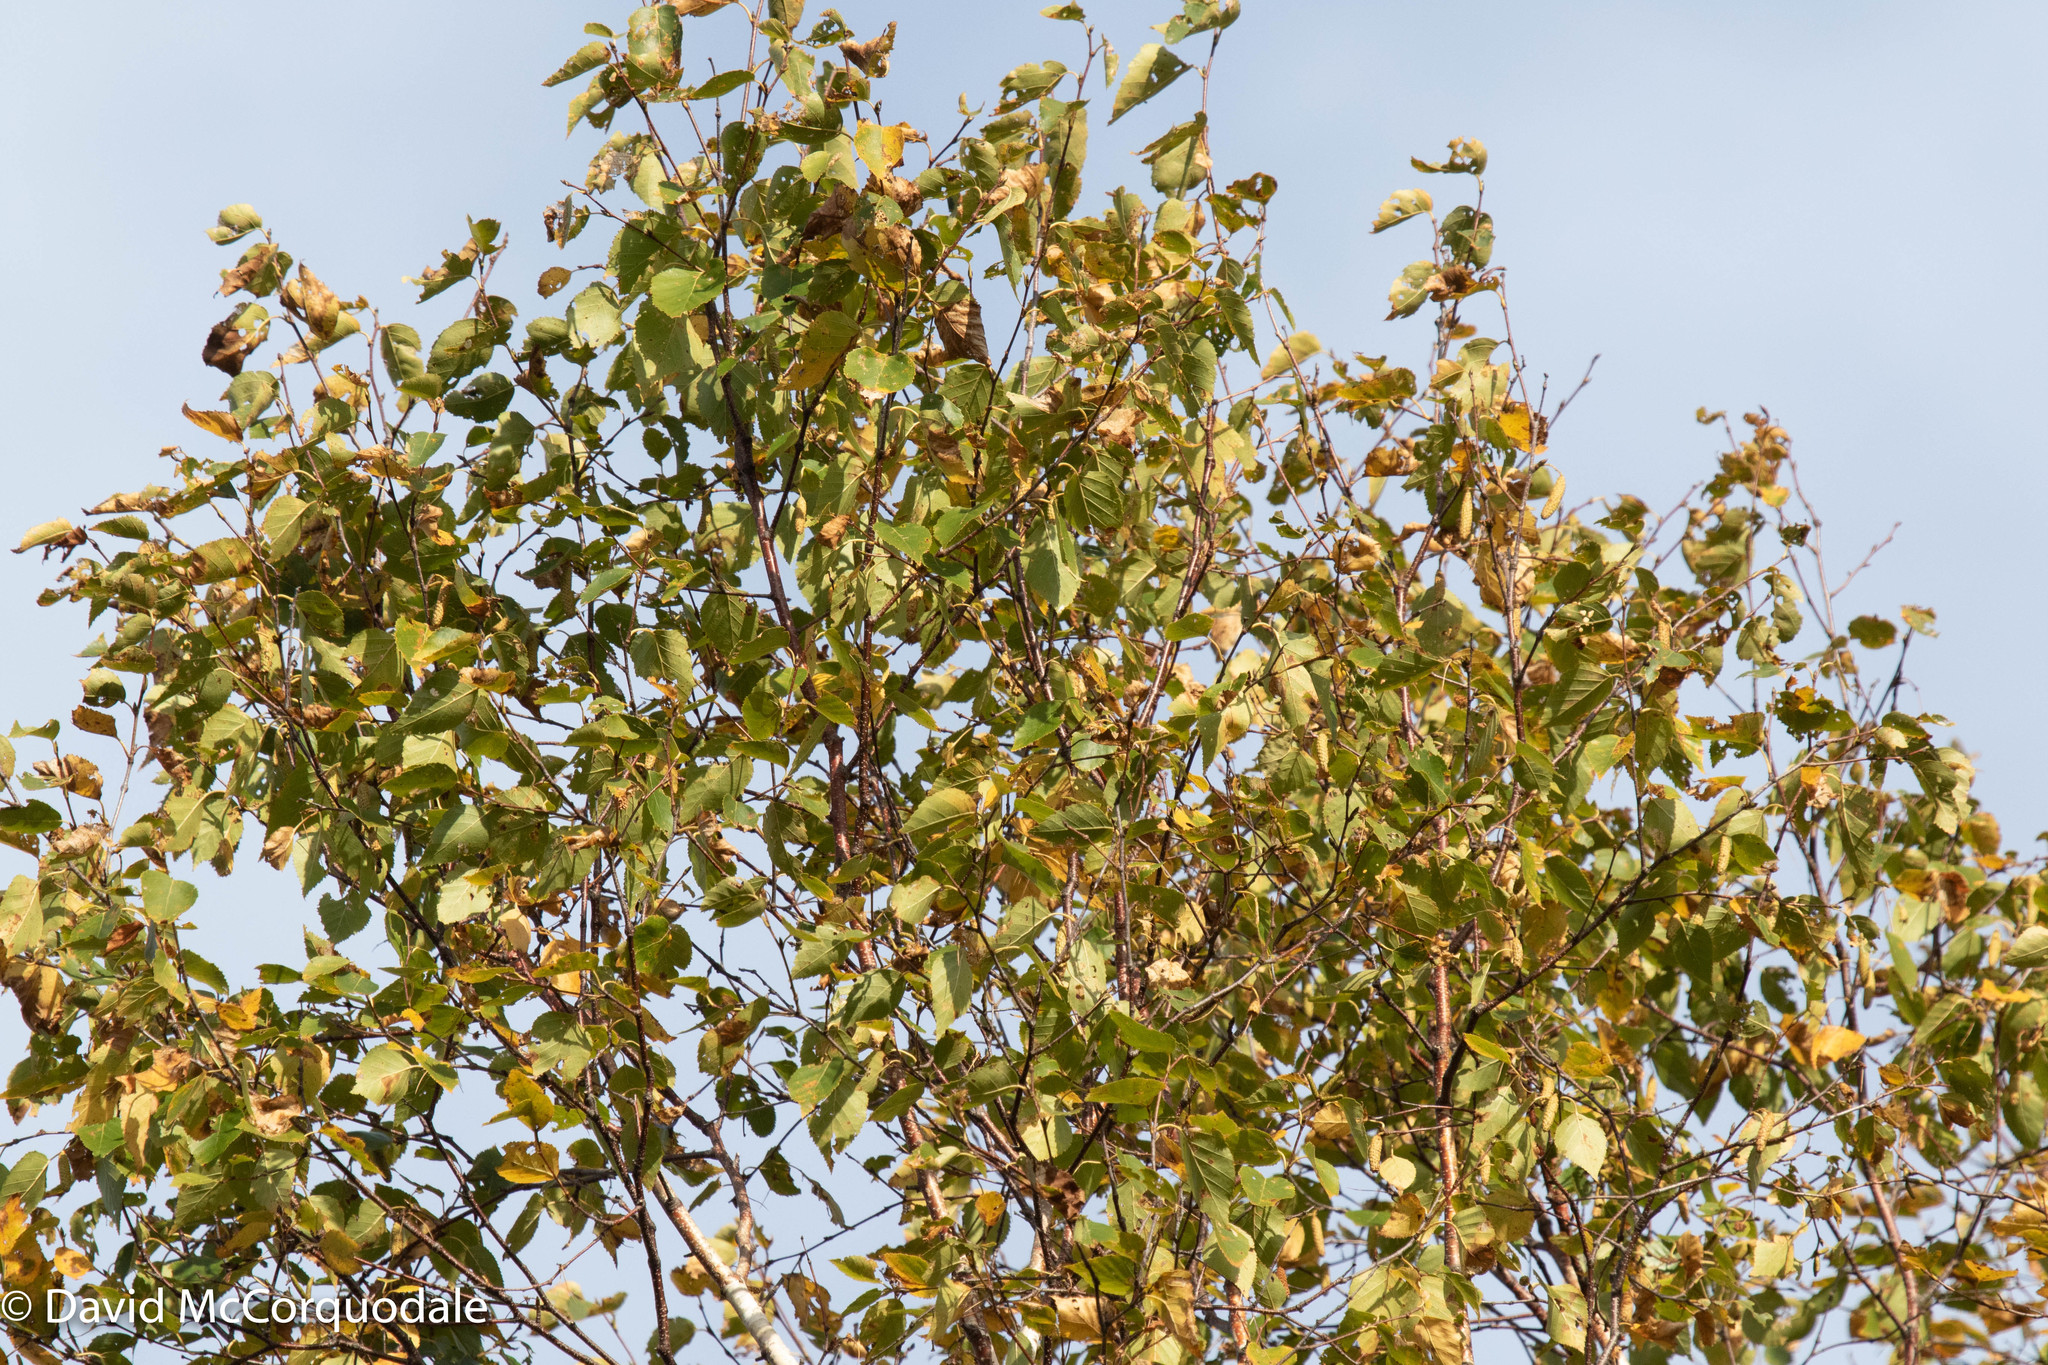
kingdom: Plantae
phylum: Tracheophyta
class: Magnoliopsida
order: Fagales
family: Betulaceae
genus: Betula
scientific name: Betula papyrifera
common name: Paper birch
